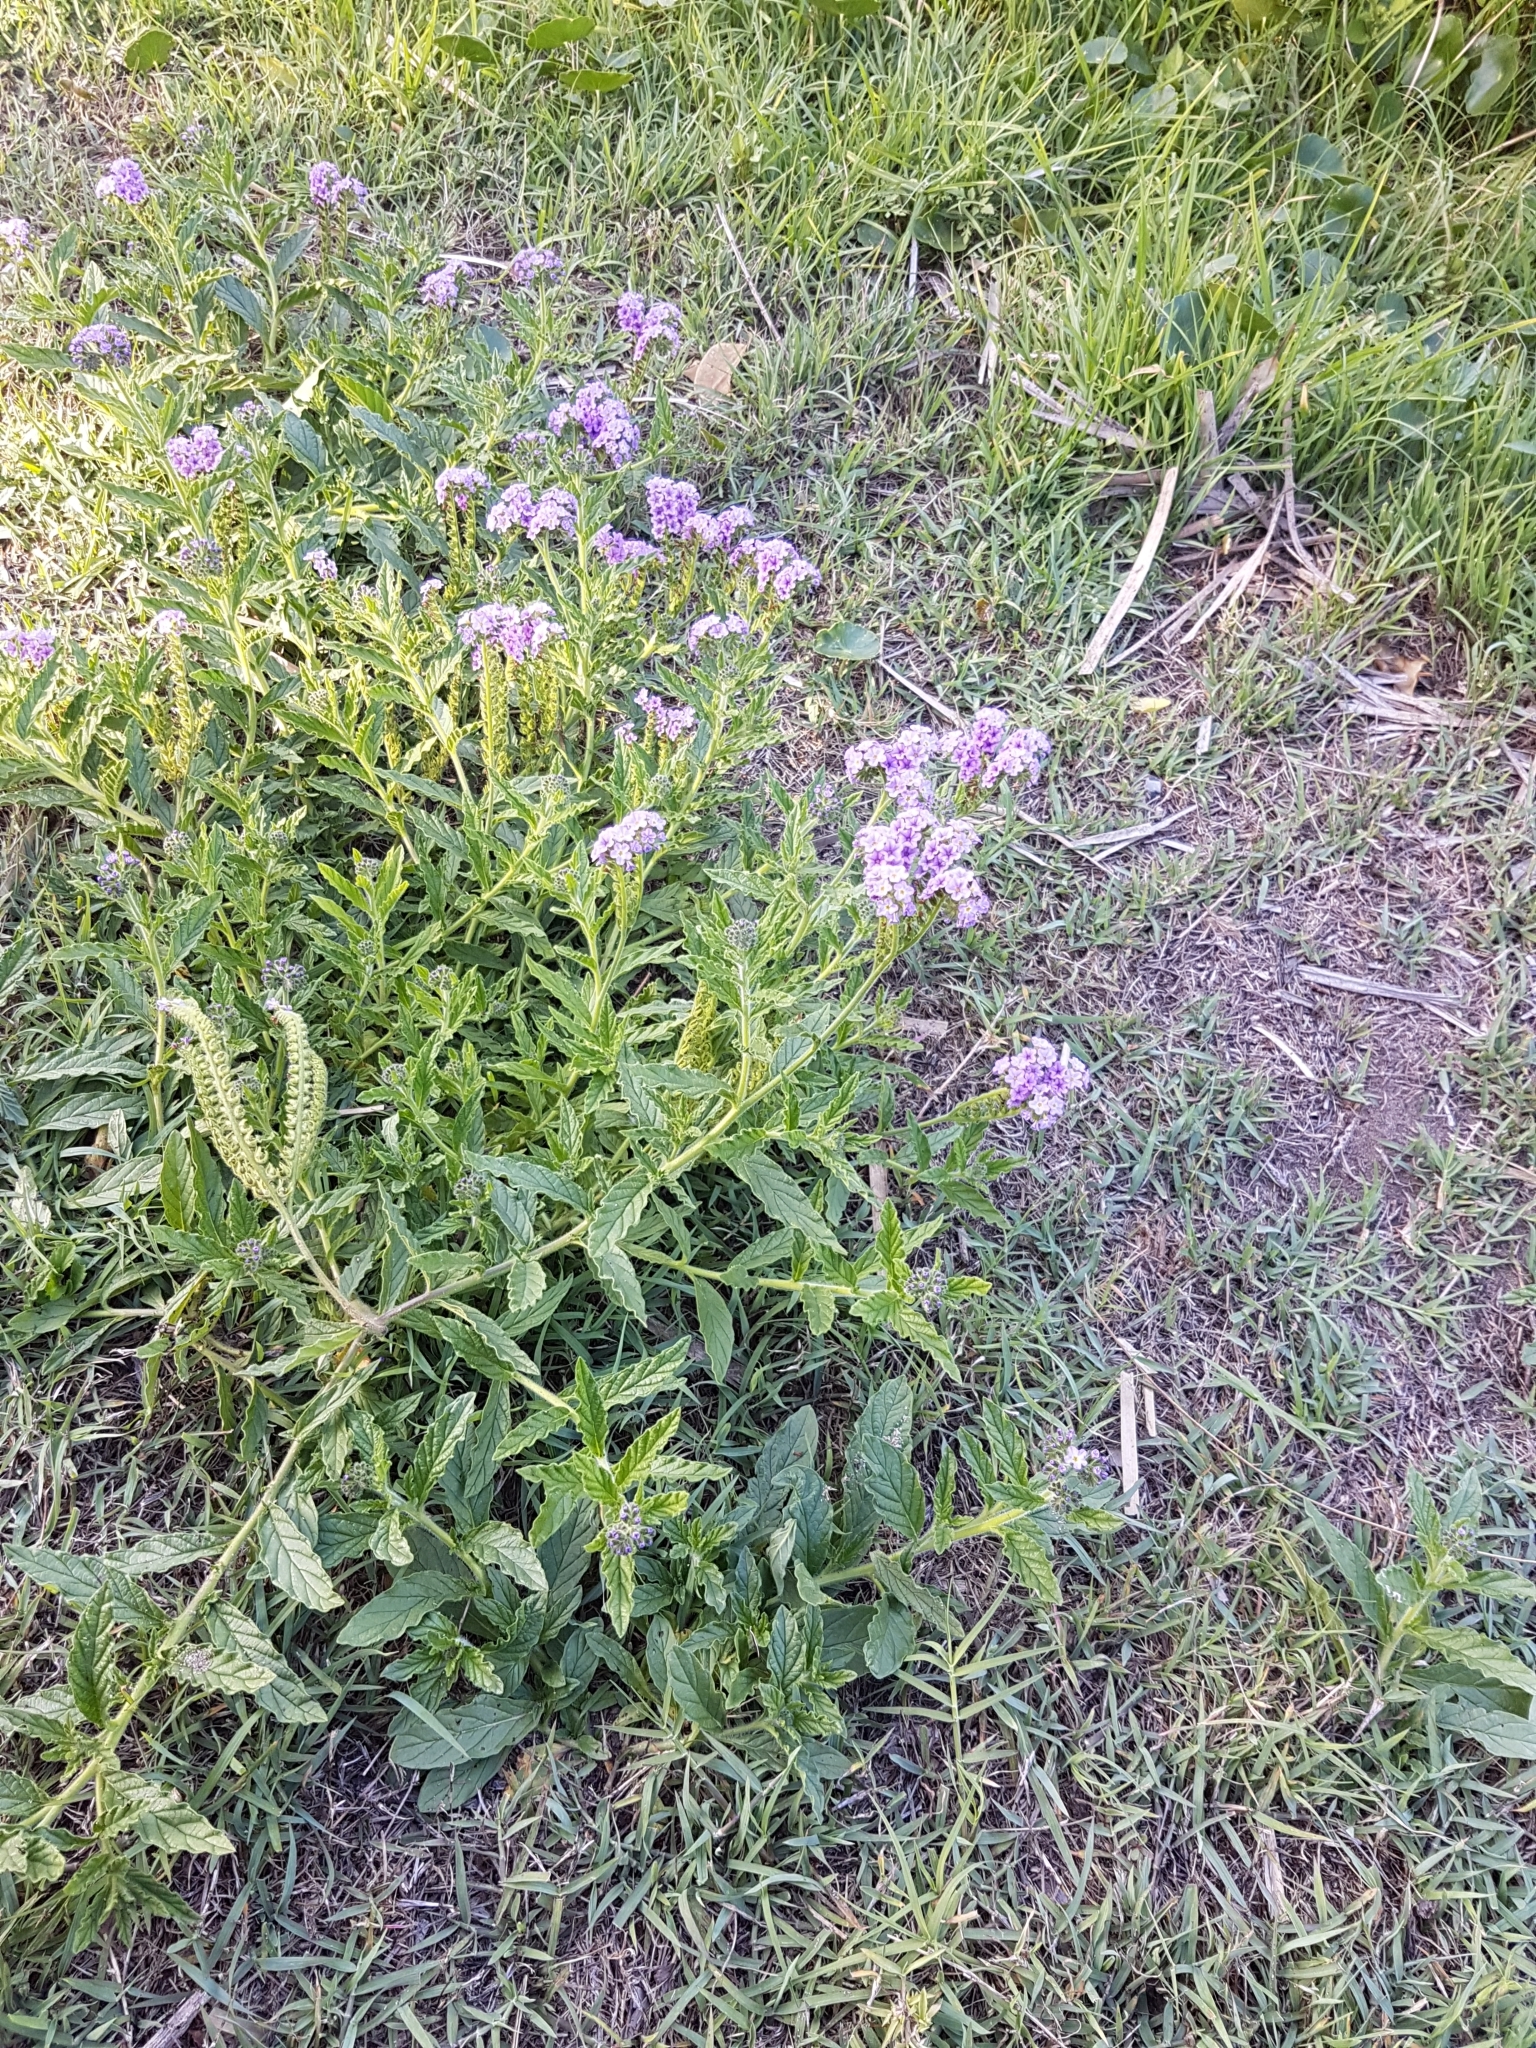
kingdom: Plantae
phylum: Tracheophyta
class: Magnoliopsida
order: Boraginales
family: Heliotropiaceae
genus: Heliotropium
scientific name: Heliotropium amplexicaule
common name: Clasping heliotrope
